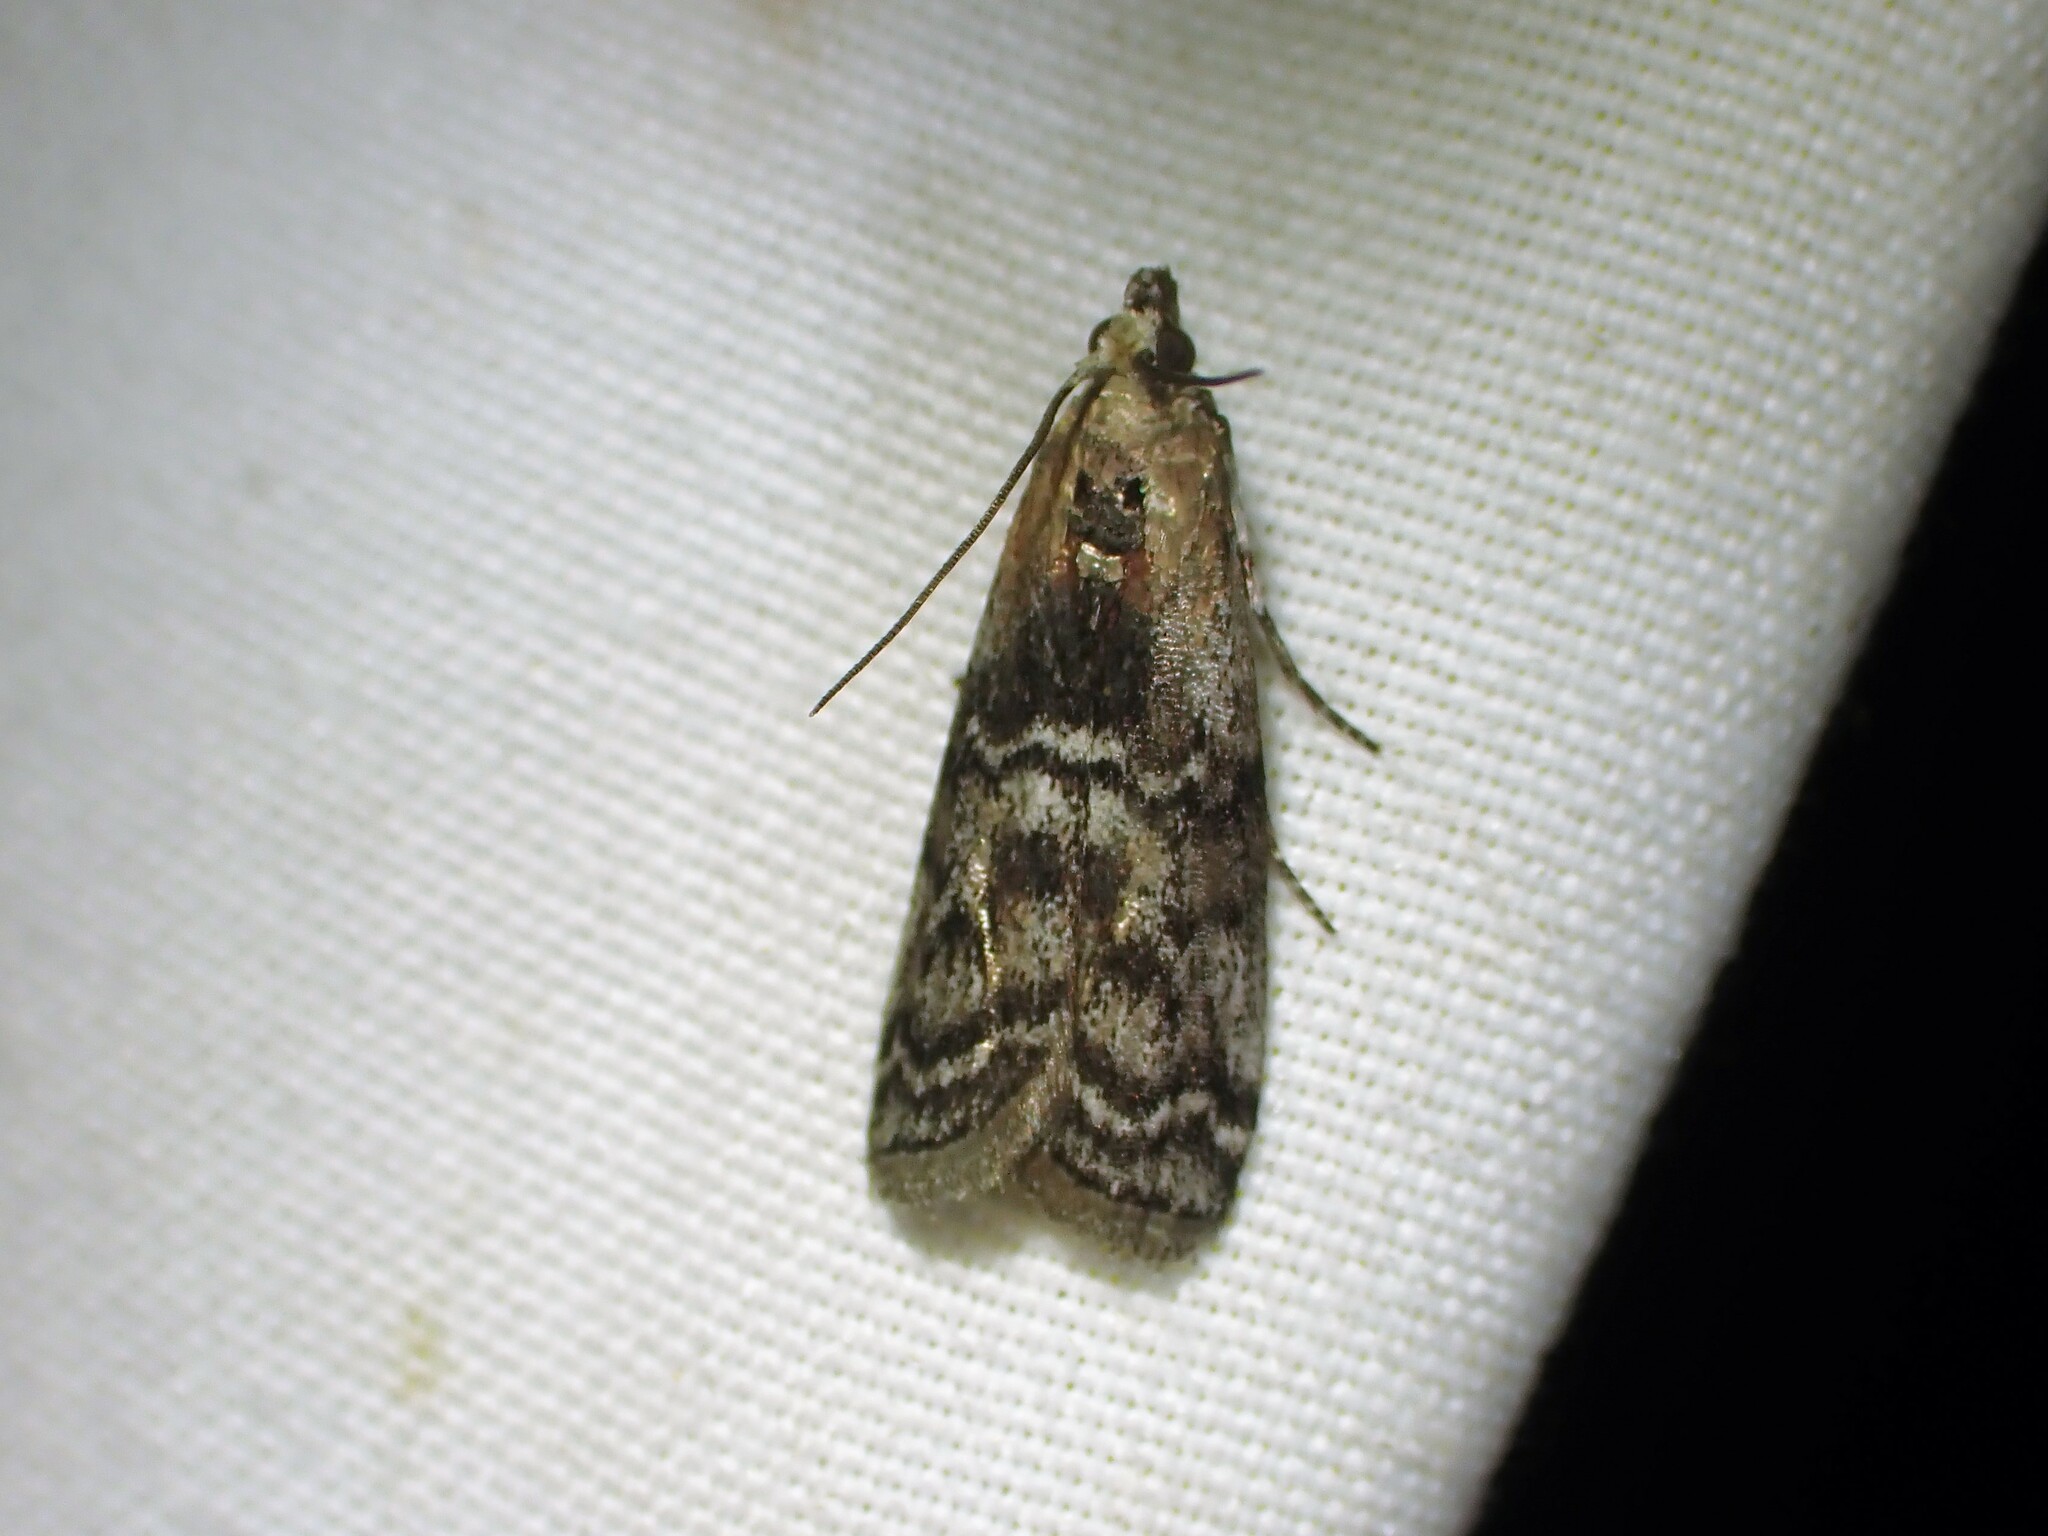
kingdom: Animalia
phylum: Arthropoda
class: Insecta
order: Lepidoptera
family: Pyralidae
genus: Glyptocera
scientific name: Glyptocera consobrinella
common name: Viburnum glyptocera moth
